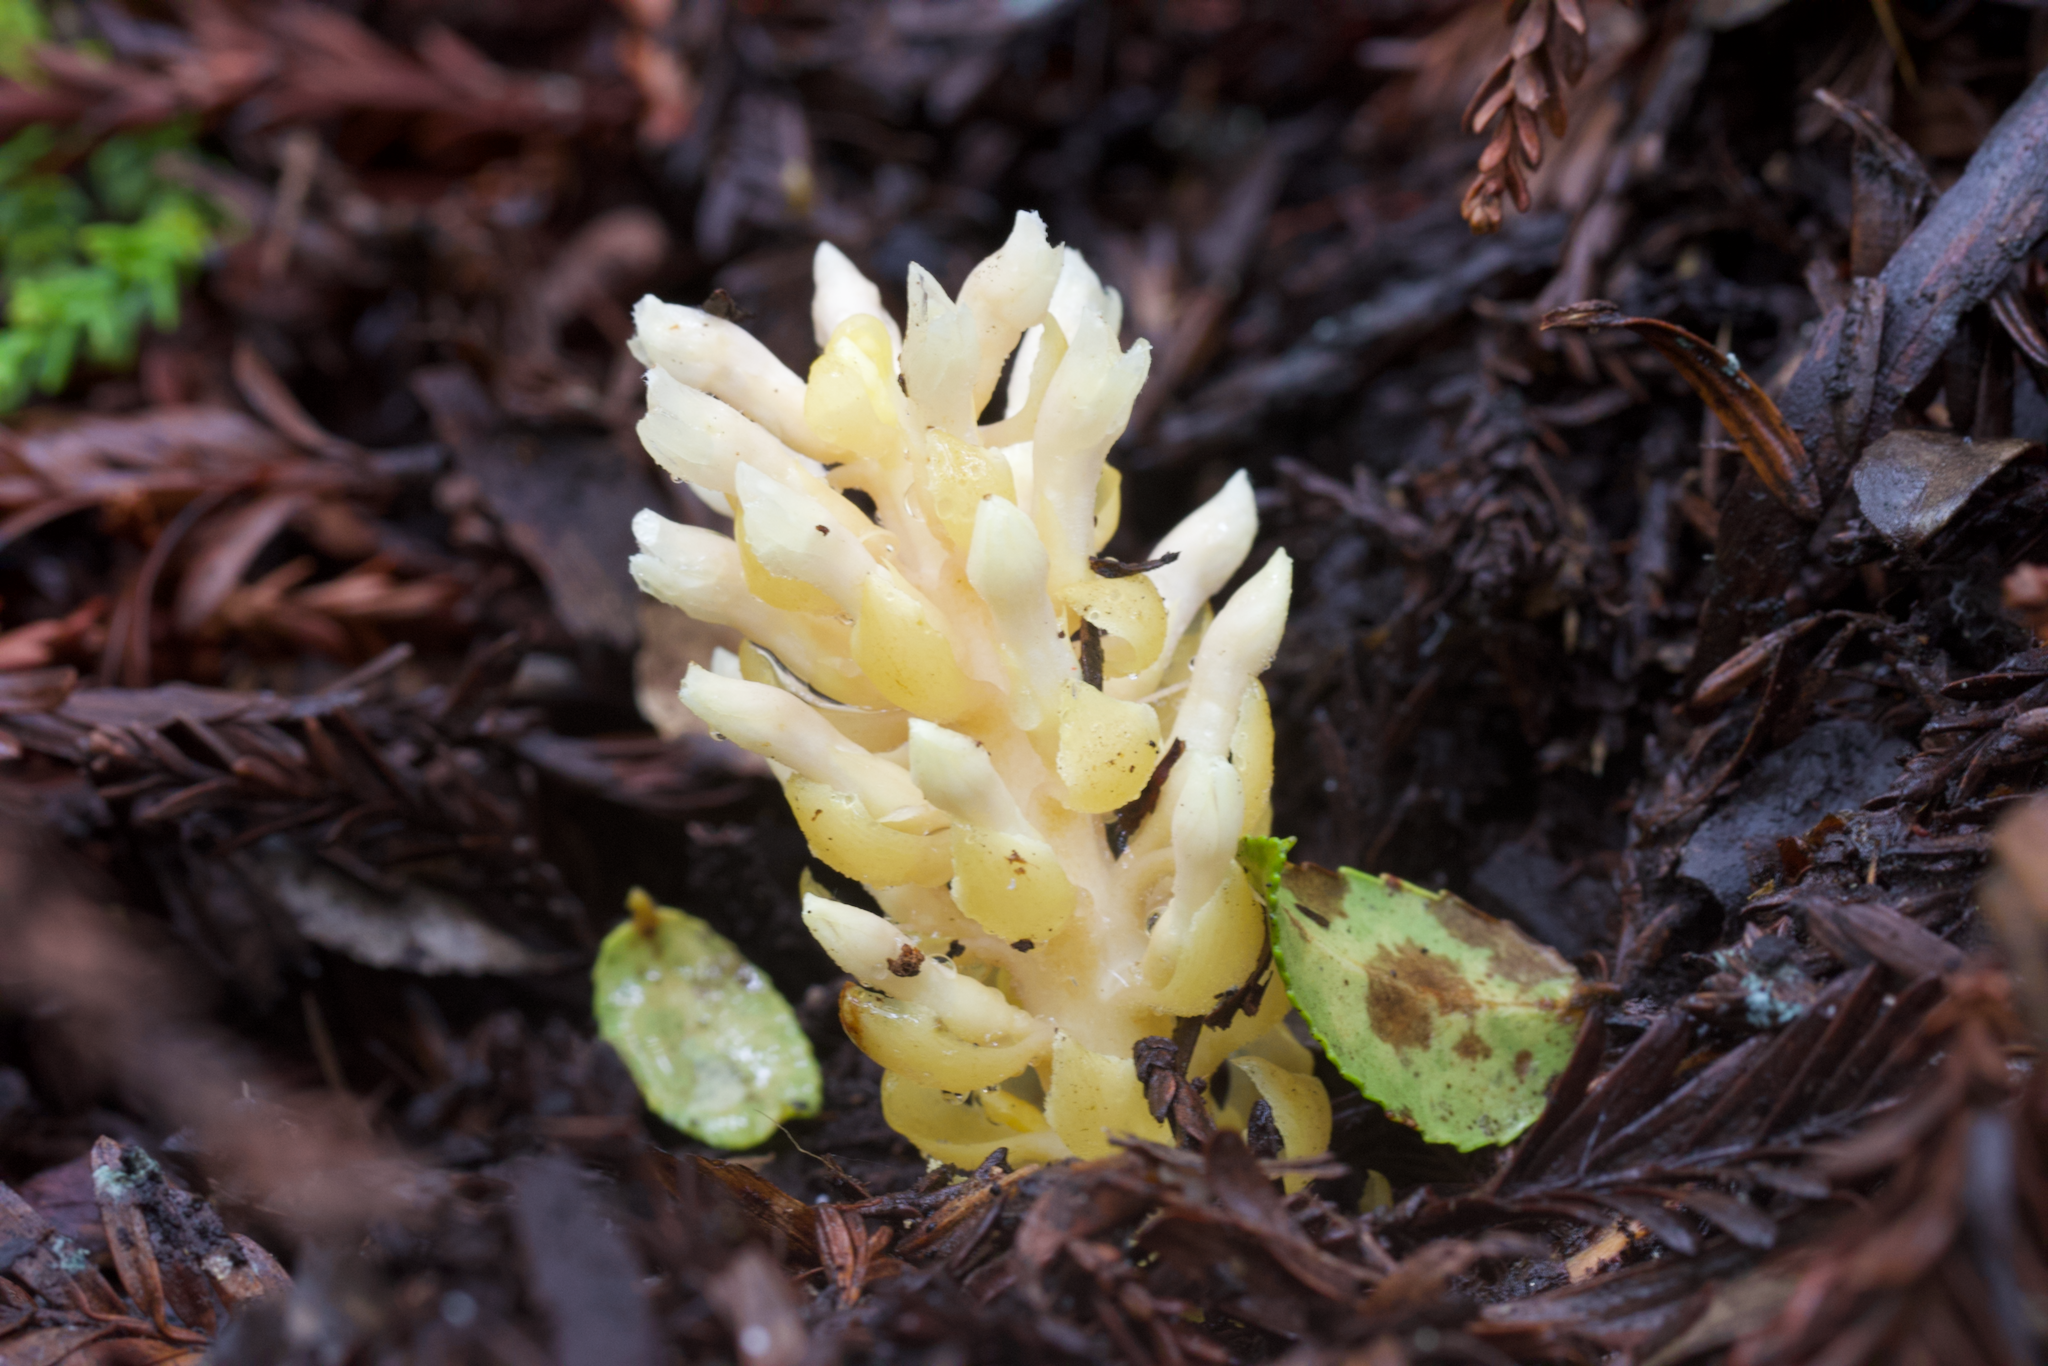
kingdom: Plantae
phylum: Tracheophyta
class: Magnoliopsida
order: Lamiales
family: Orobanchaceae
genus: Kopsiopsis
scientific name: Kopsiopsis hookeri
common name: Hooker's groundcone
